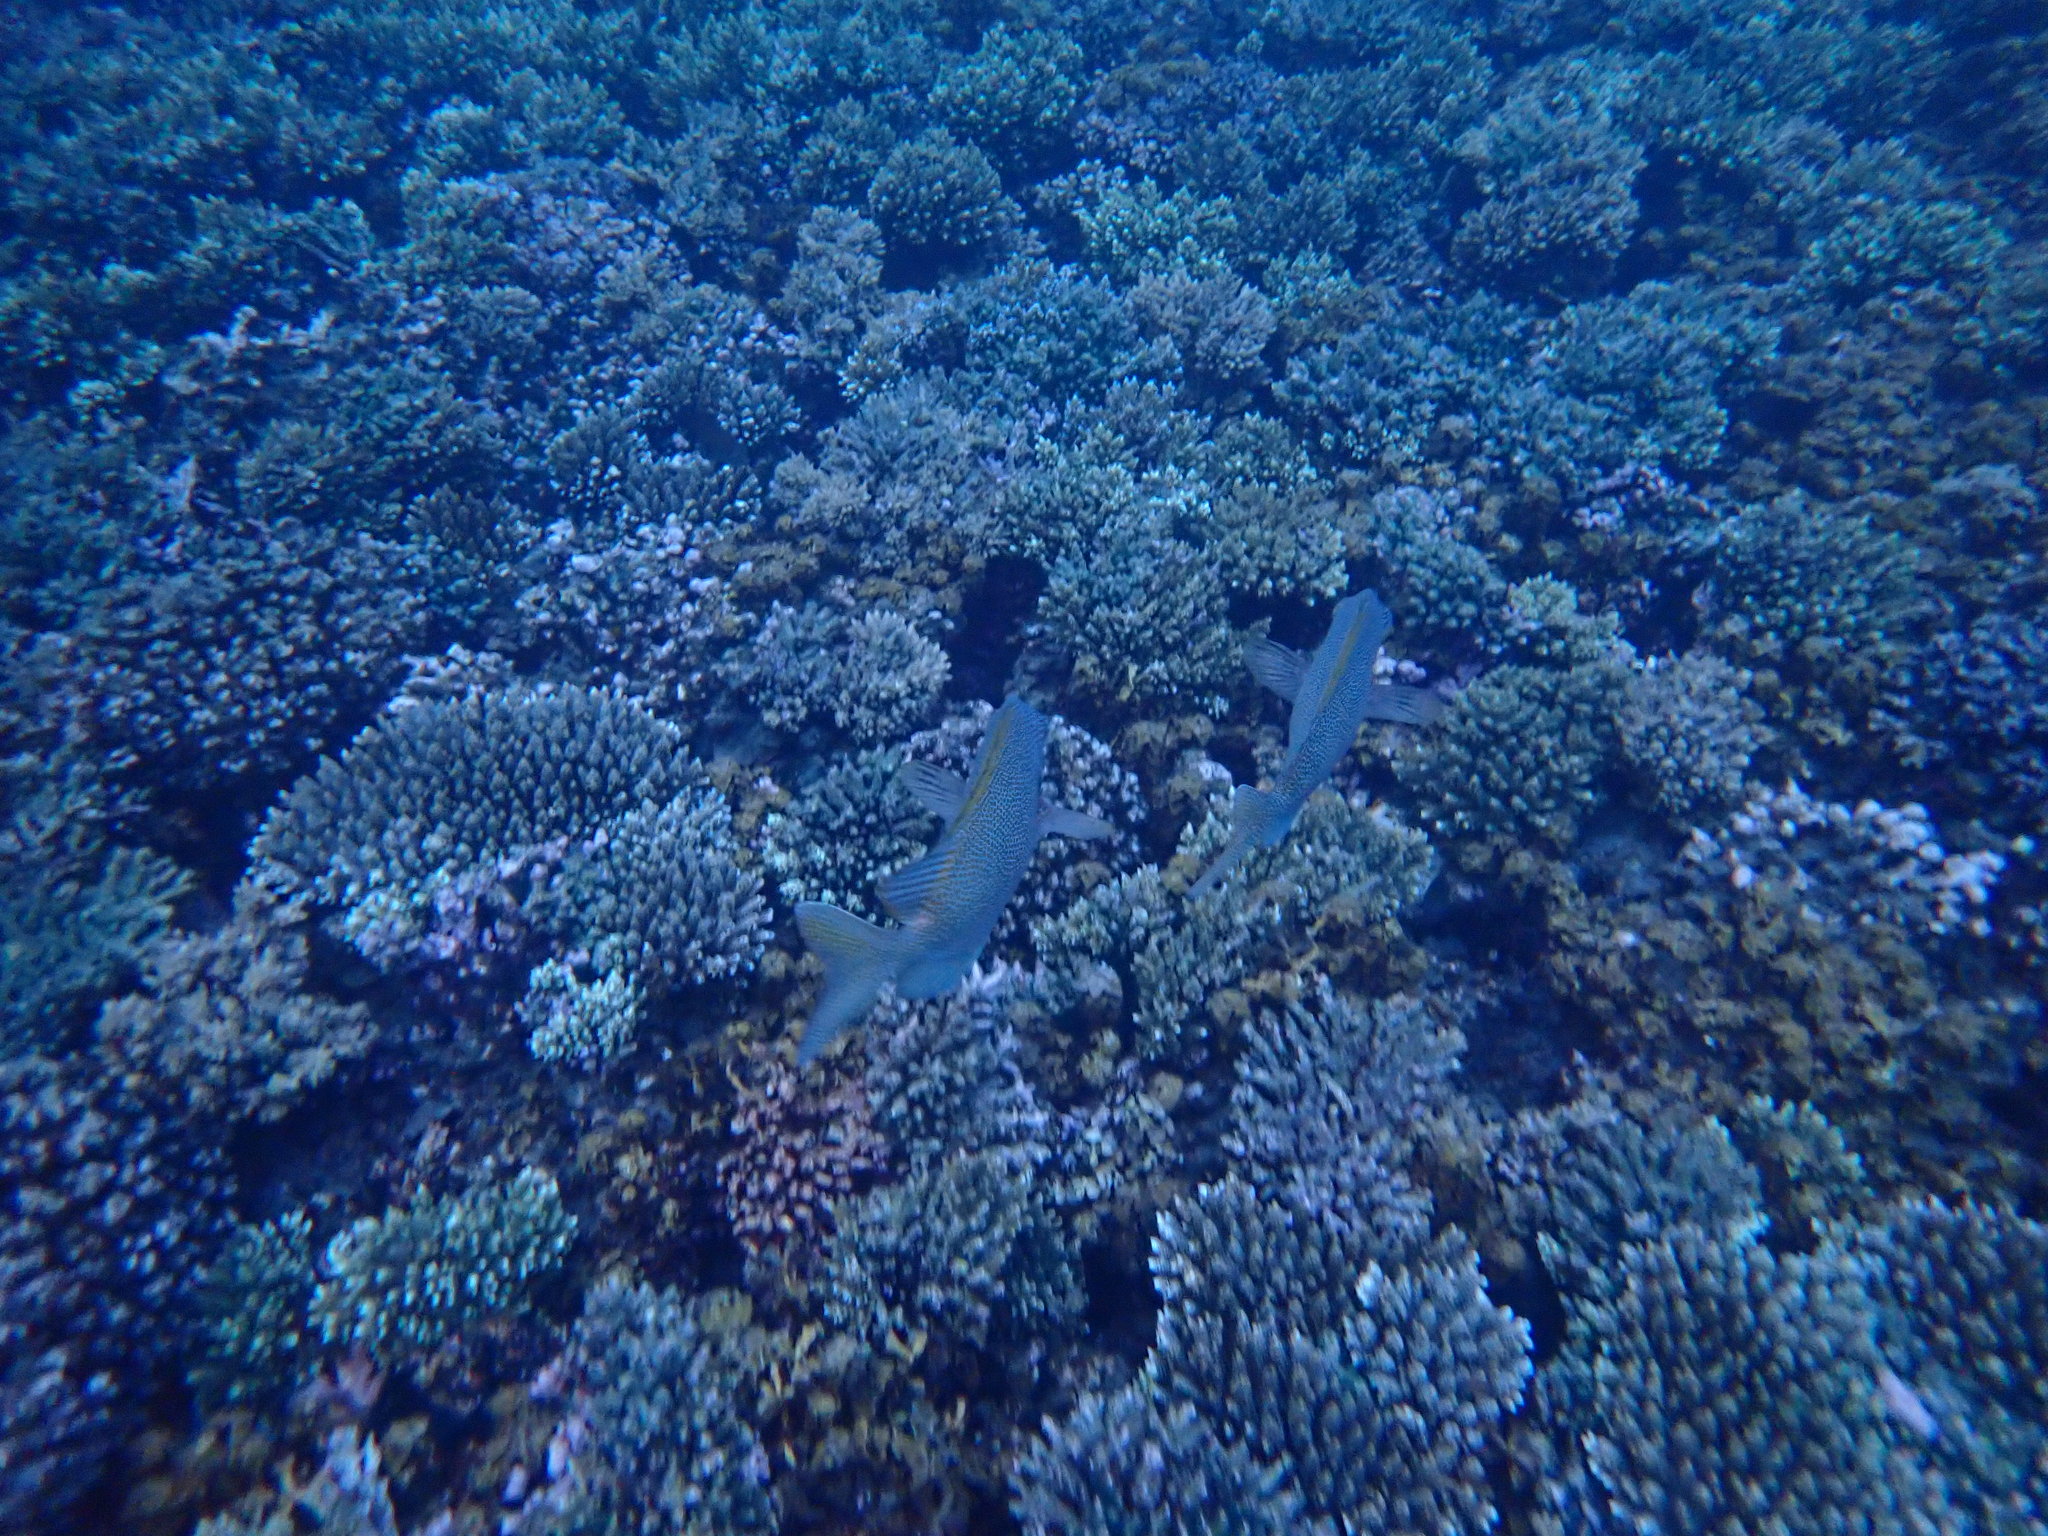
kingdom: Animalia
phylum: Chordata
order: Perciformes
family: Siganidae
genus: Siganus
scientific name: Siganus punctatus
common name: Gold-spotted rabbitfish
